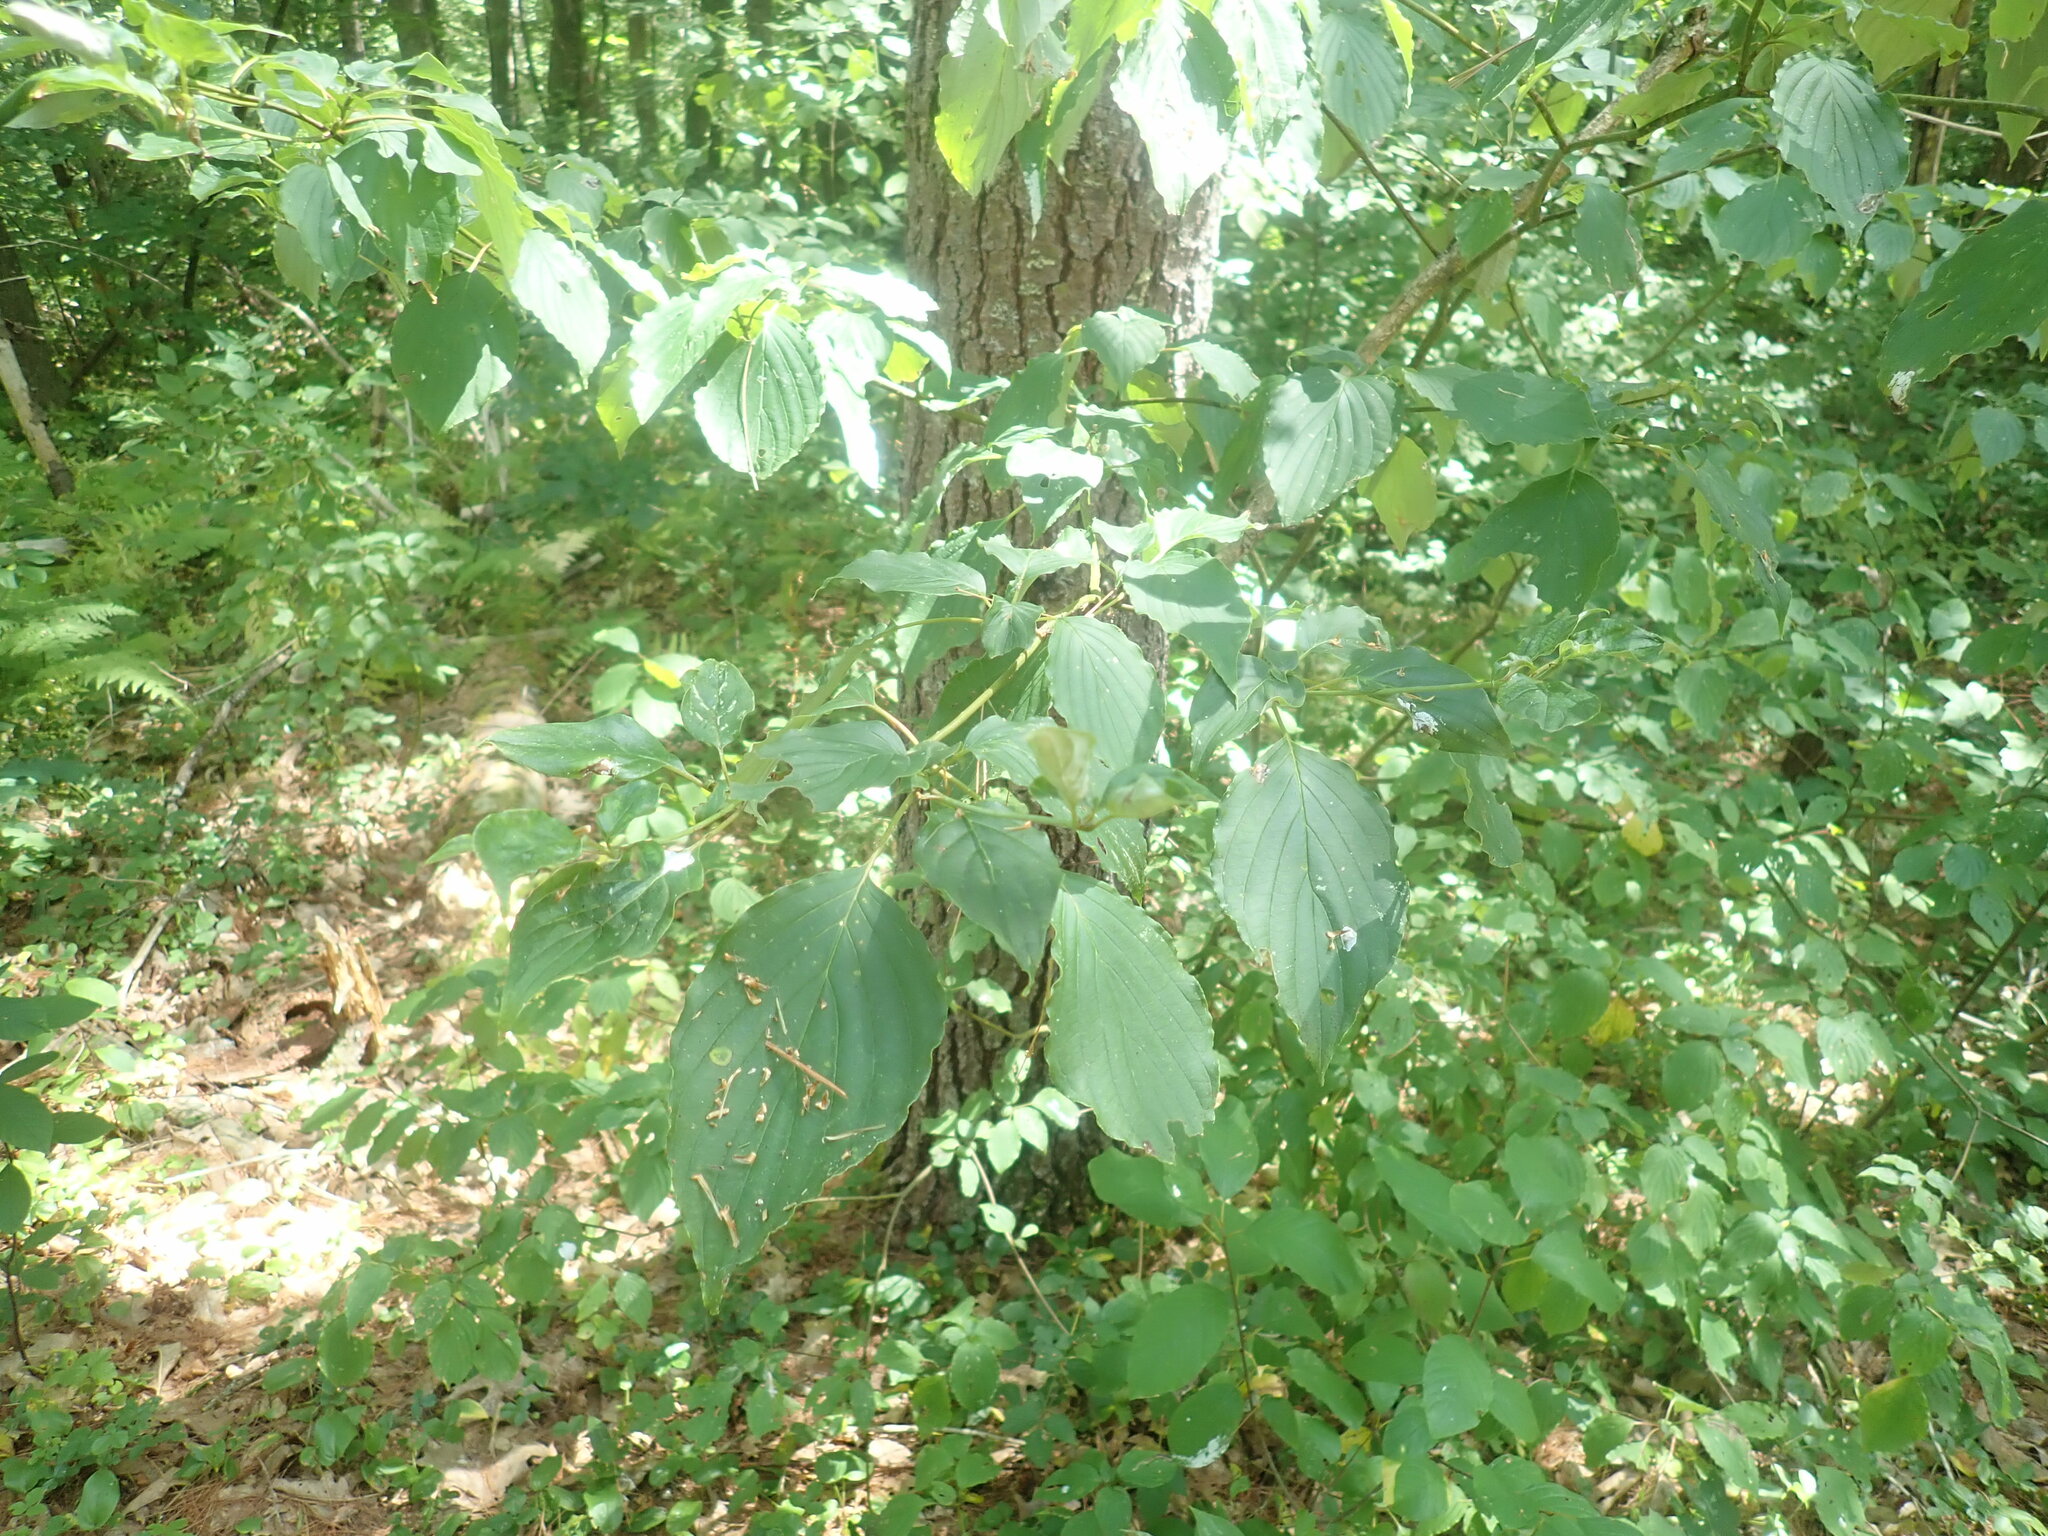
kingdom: Plantae
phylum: Tracheophyta
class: Magnoliopsida
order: Cornales
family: Cornaceae
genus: Cornus
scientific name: Cornus alternifolia
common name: Pagoda dogwood
